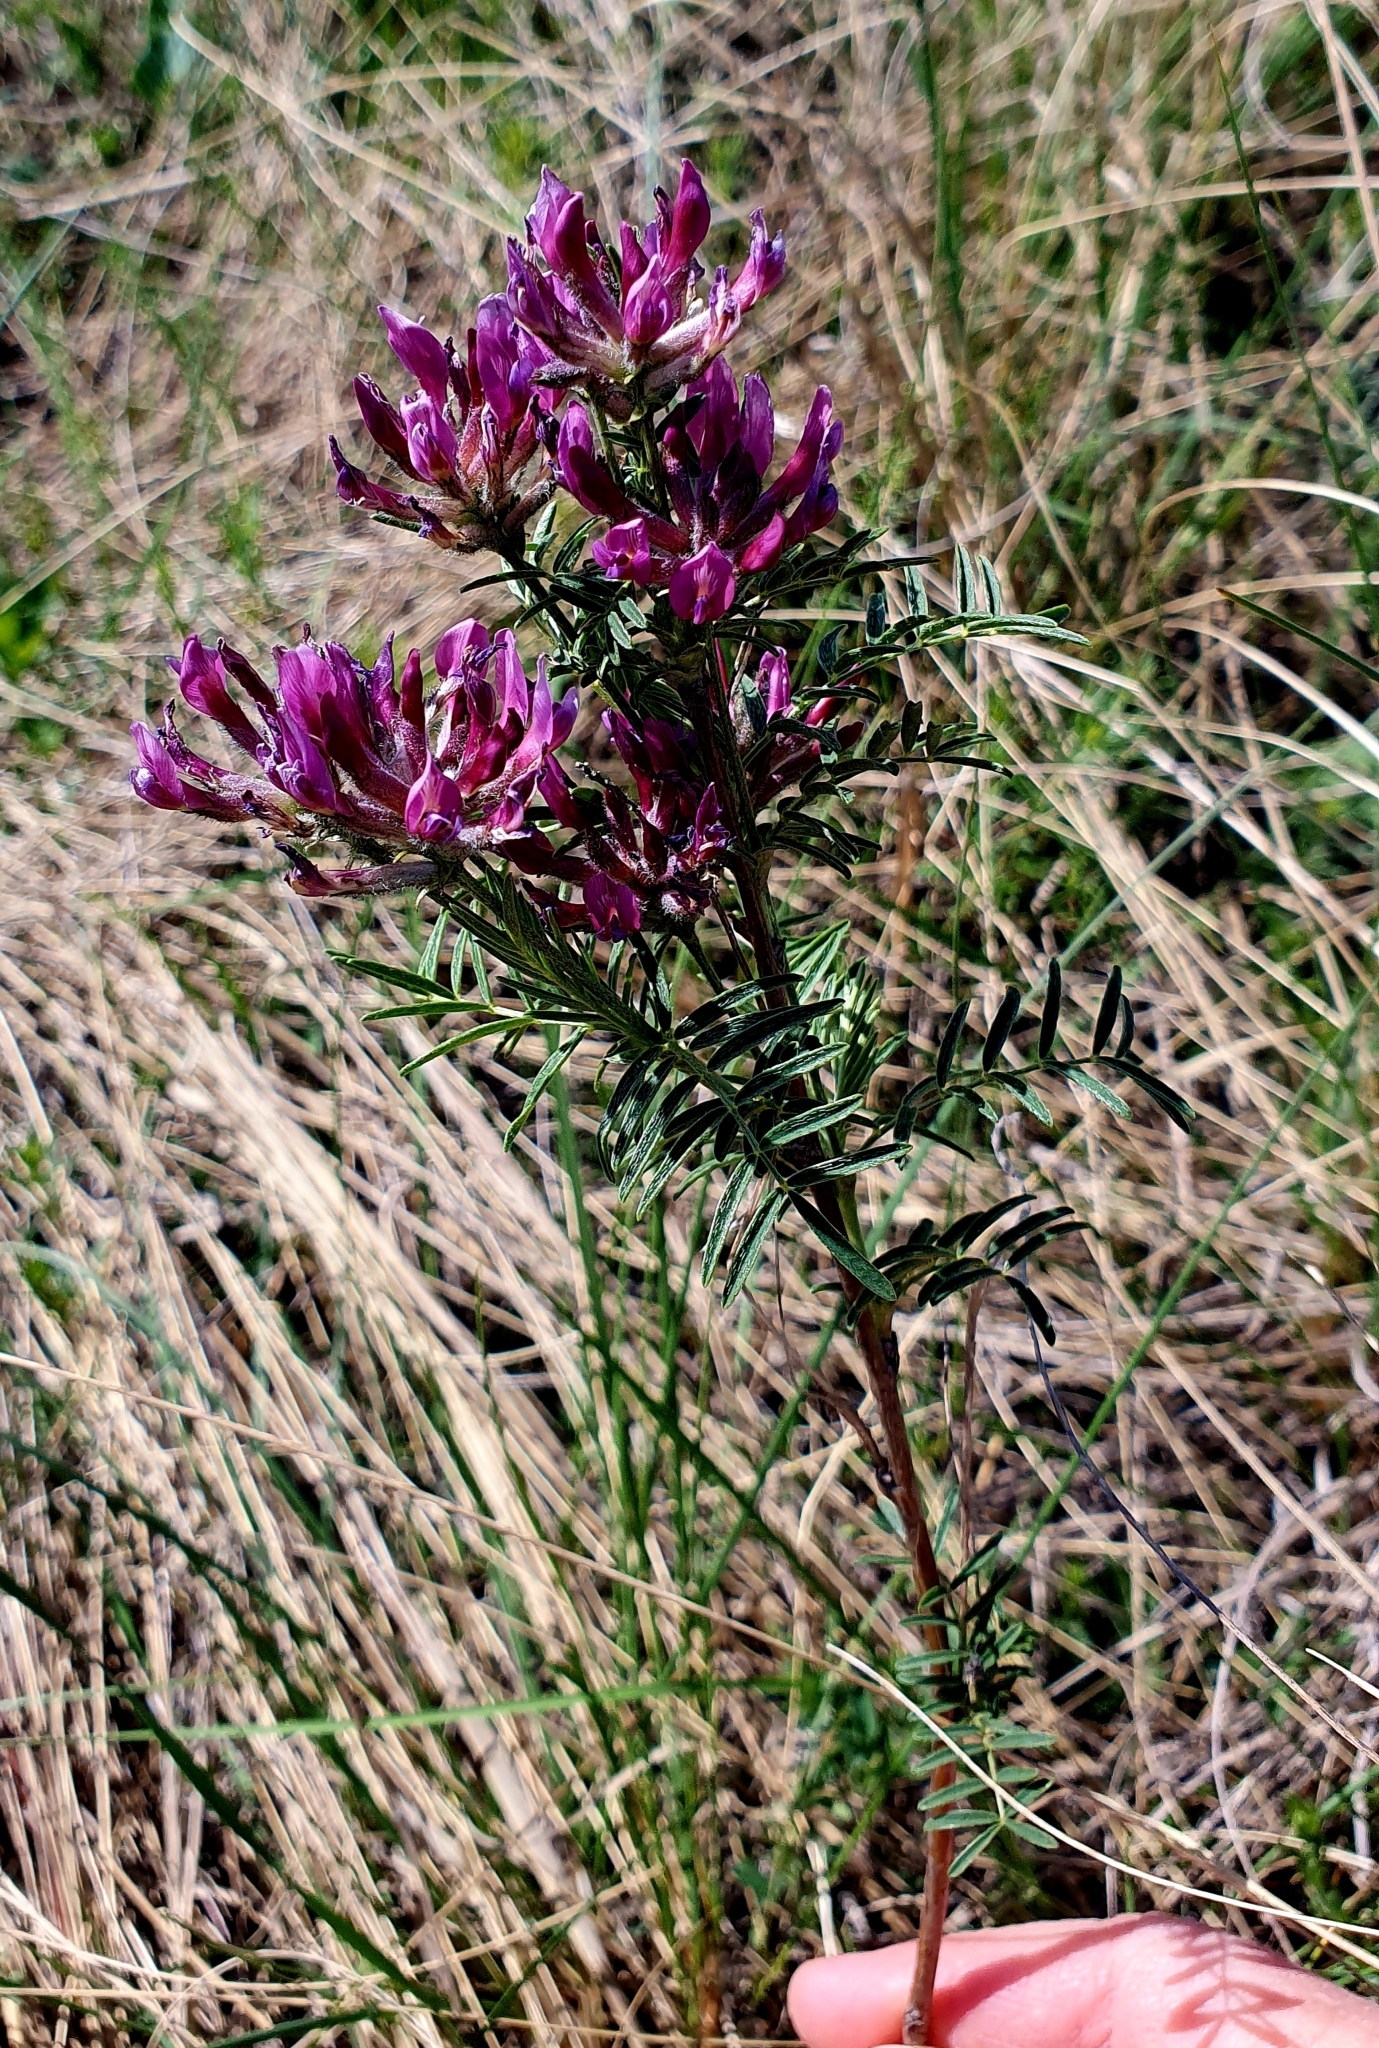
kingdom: Plantae
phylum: Tracheophyta
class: Magnoliopsida
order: Fabales
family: Fabaceae
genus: Astragalus
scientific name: Astragalus cornutus
